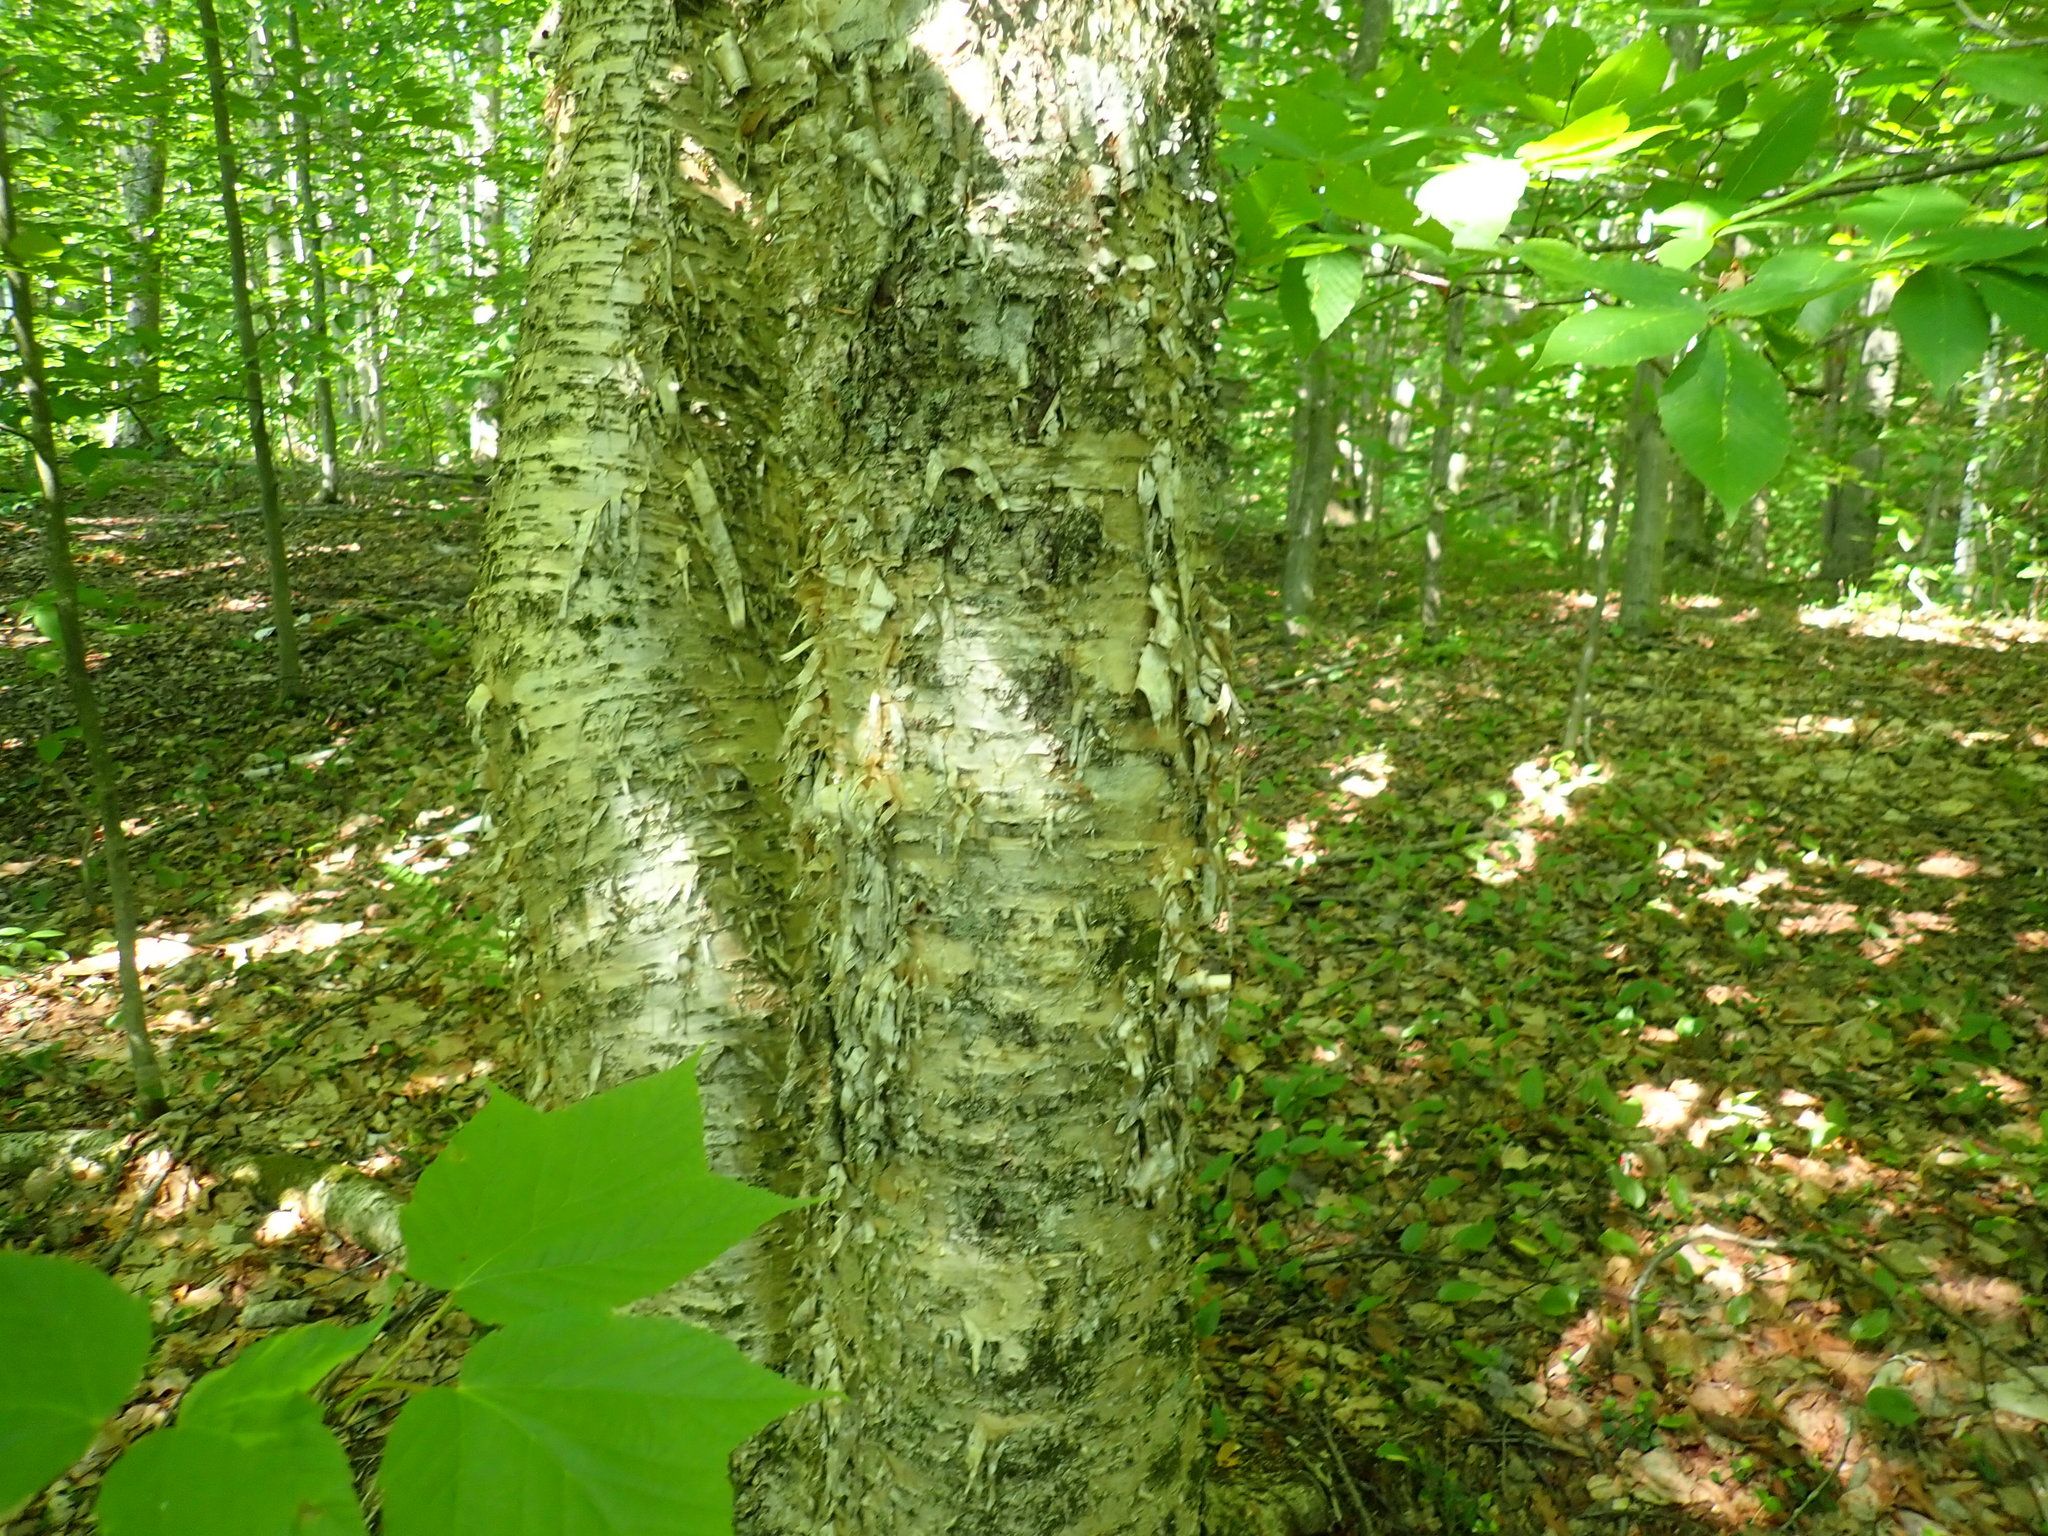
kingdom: Plantae
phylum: Tracheophyta
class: Magnoliopsida
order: Fagales
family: Betulaceae
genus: Betula
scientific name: Betula alleghaniensis
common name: Yellow birch
